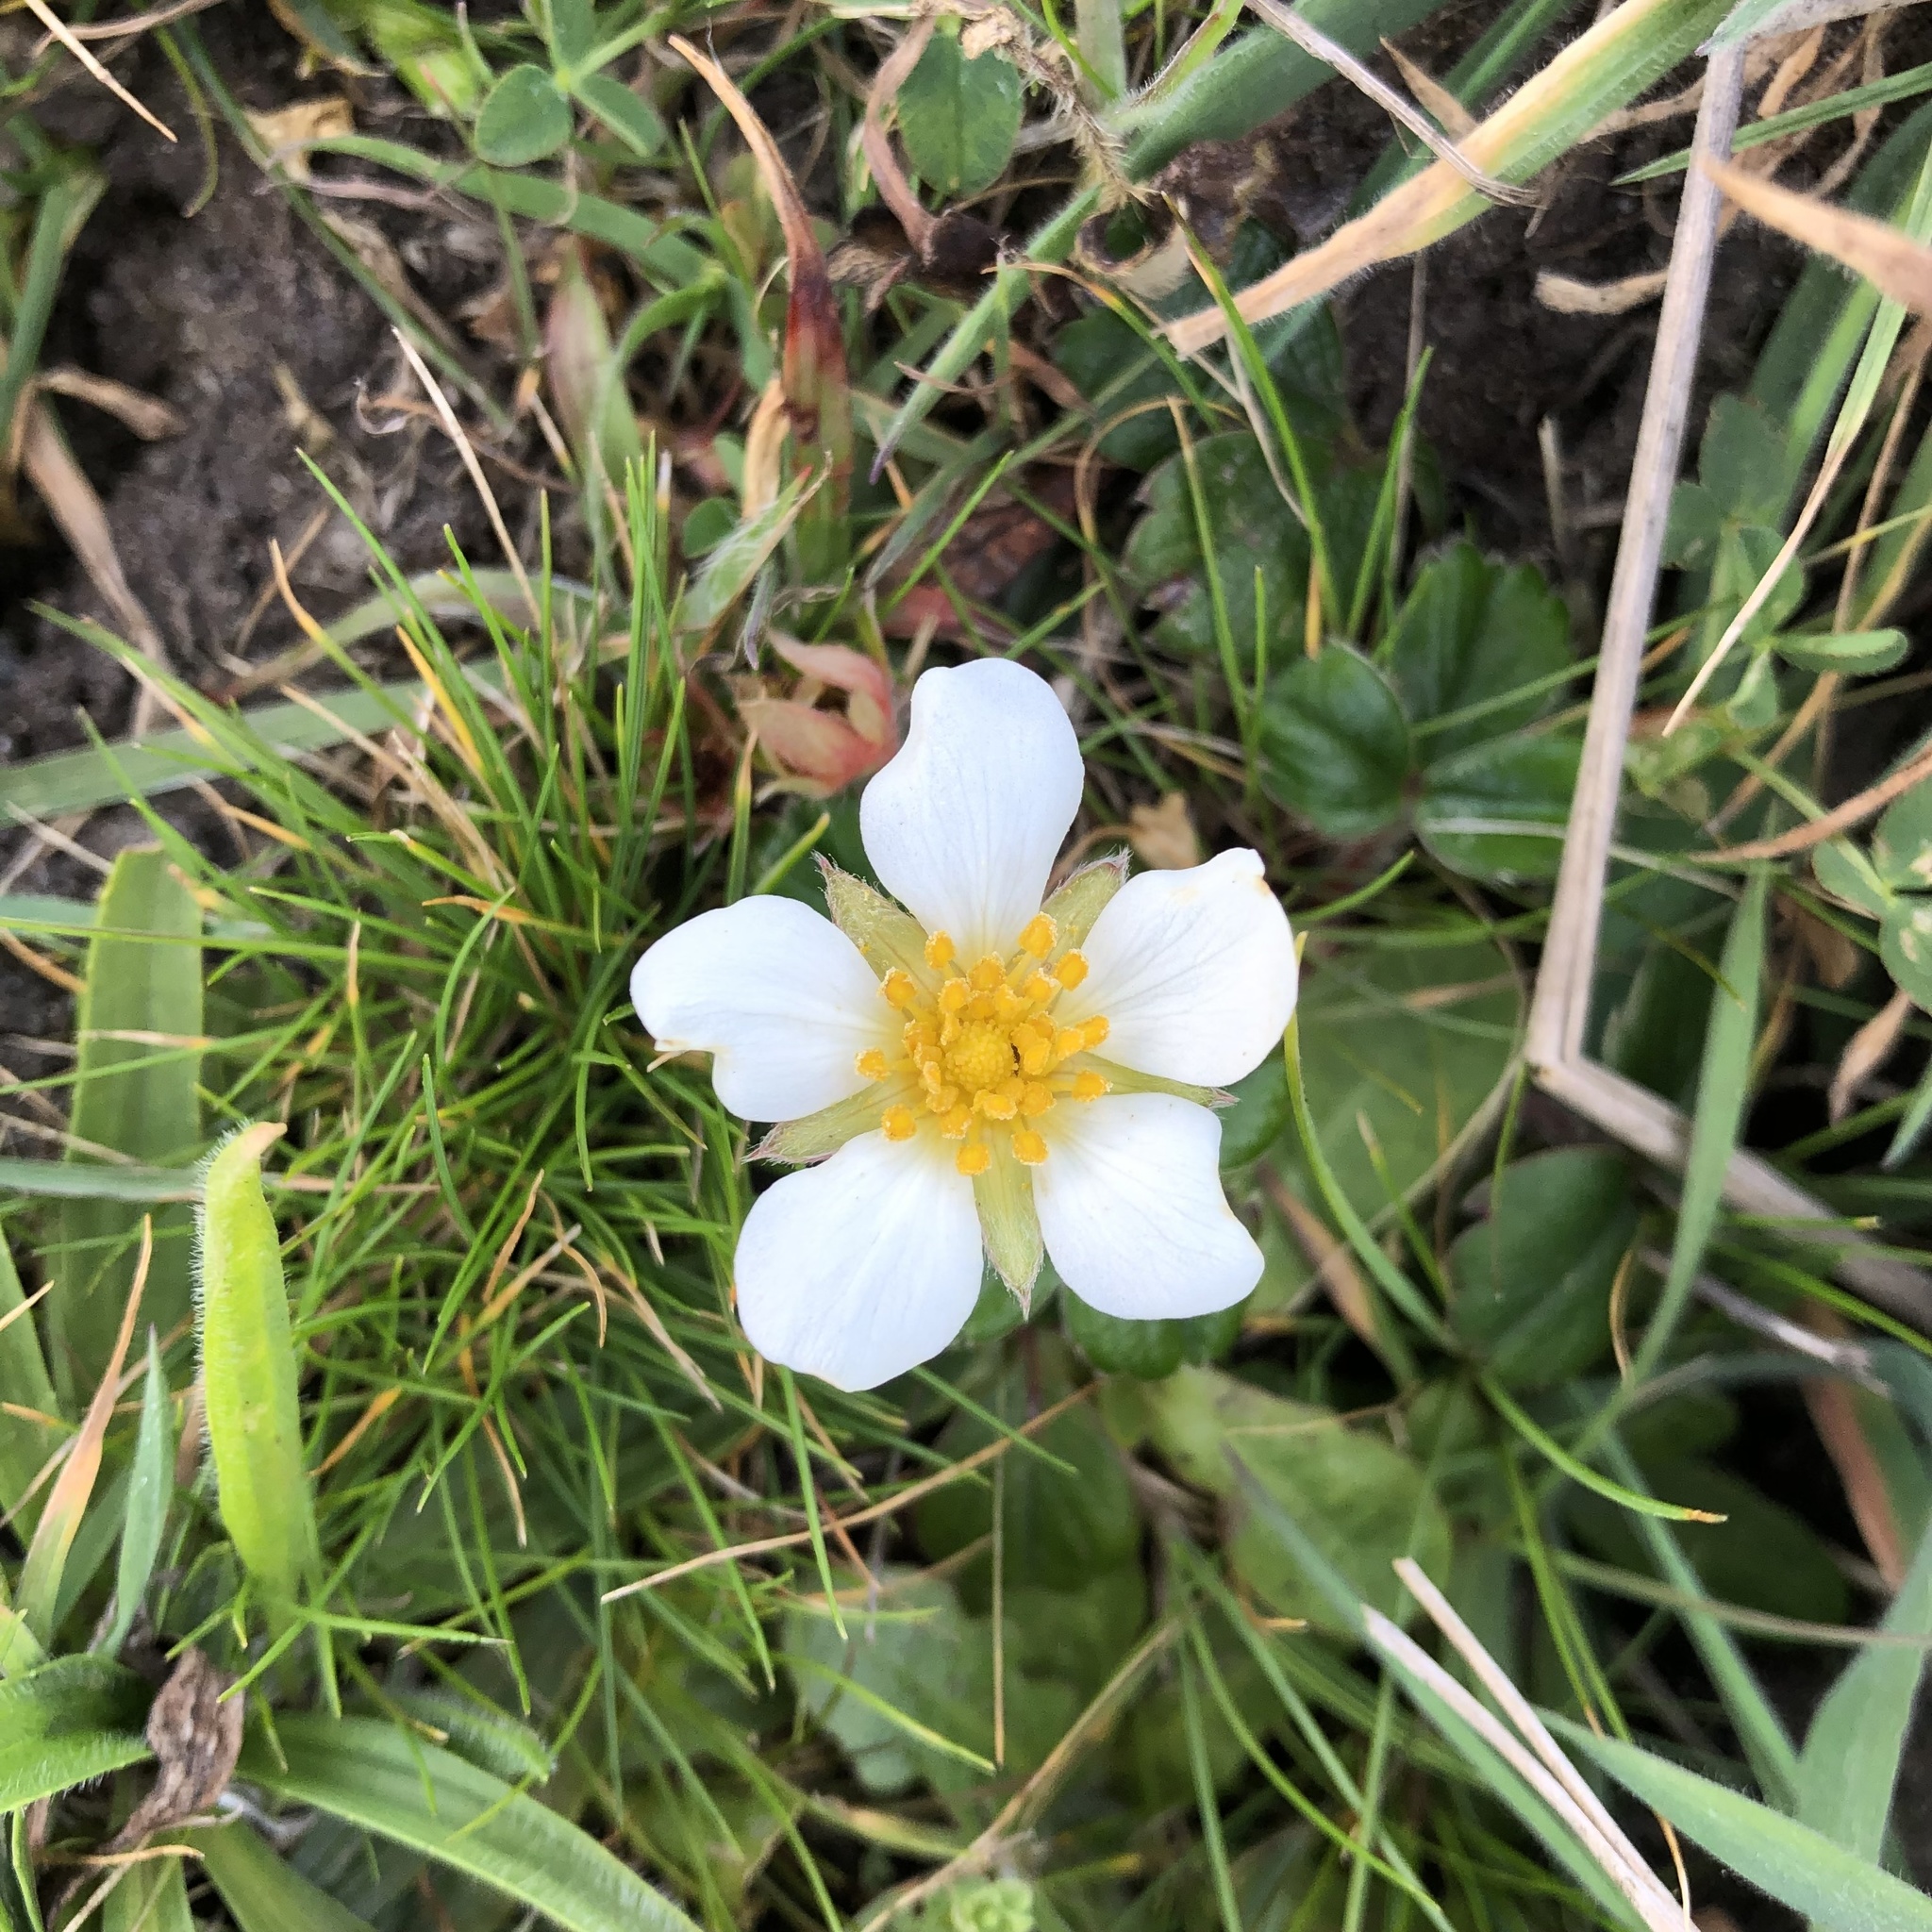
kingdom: Plantae
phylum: Tracheophyta
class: Magnoliopsida
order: Rosales
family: Rosaceae
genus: Fragaria
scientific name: Fragaria chiloensis
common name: Beach strawberry
